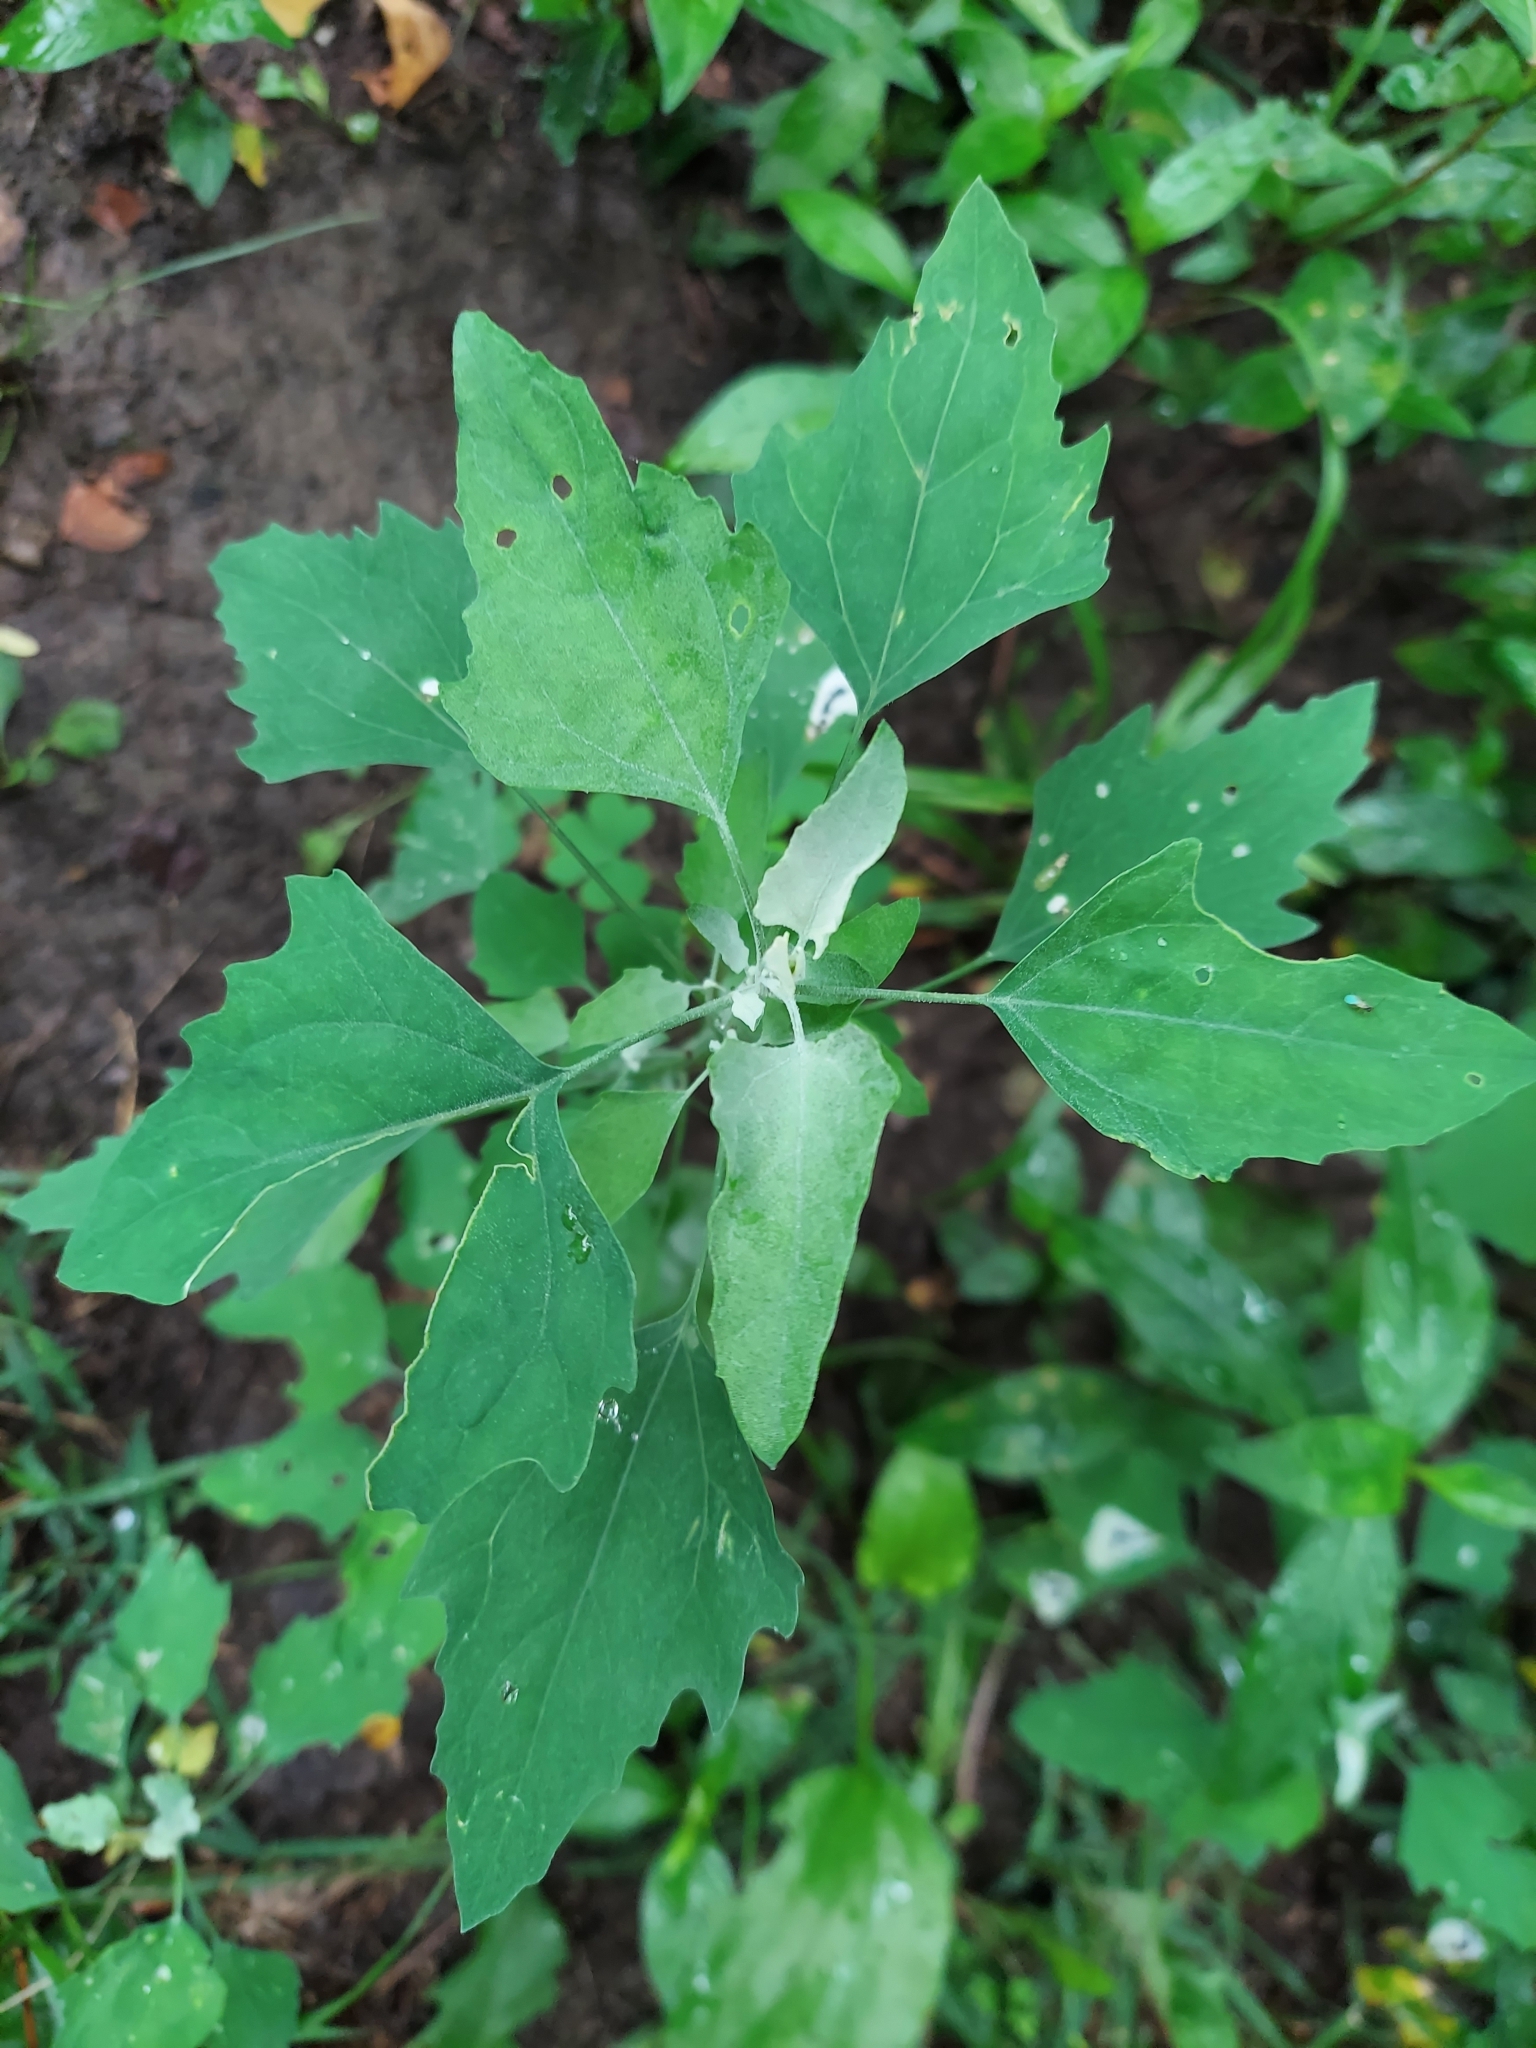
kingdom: Plantae
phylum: Tracheophyta
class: Magnoliopsida
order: Caryophyllales
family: Amaranthaceae
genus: Chenopodium
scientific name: Chenopodium album
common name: Fat-hen
